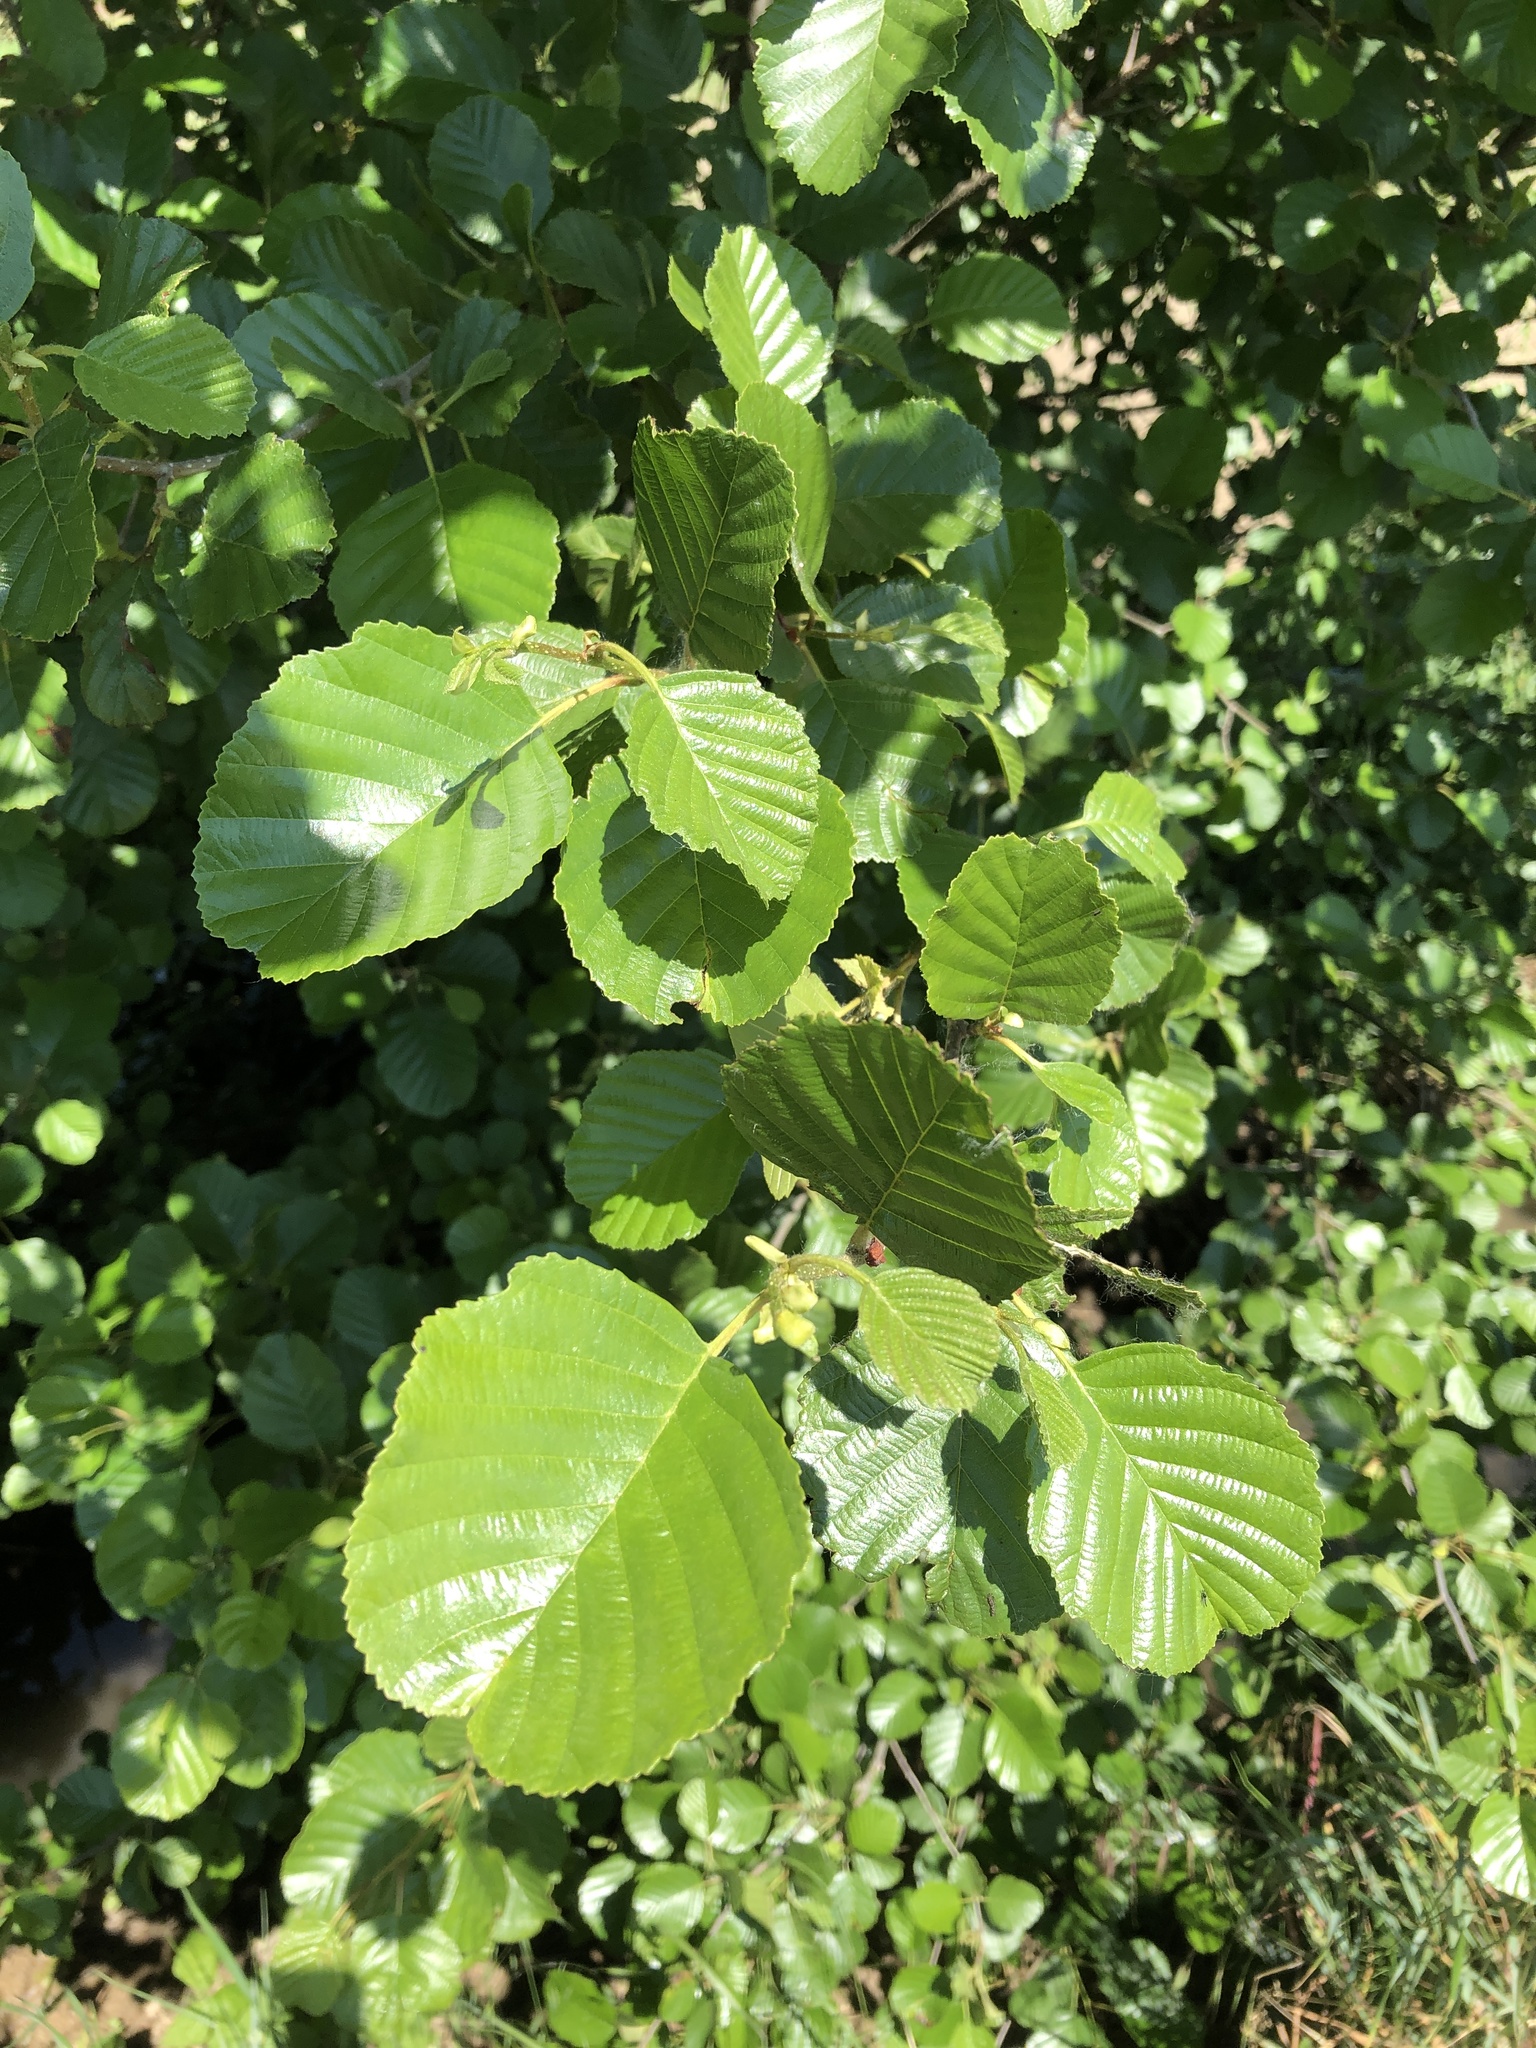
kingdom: Plantae
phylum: Tracheophyta
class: Magnoliopsida
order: Fagales
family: Betulaceae
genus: Alnus
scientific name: Alnus glutinosa
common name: Black alder
